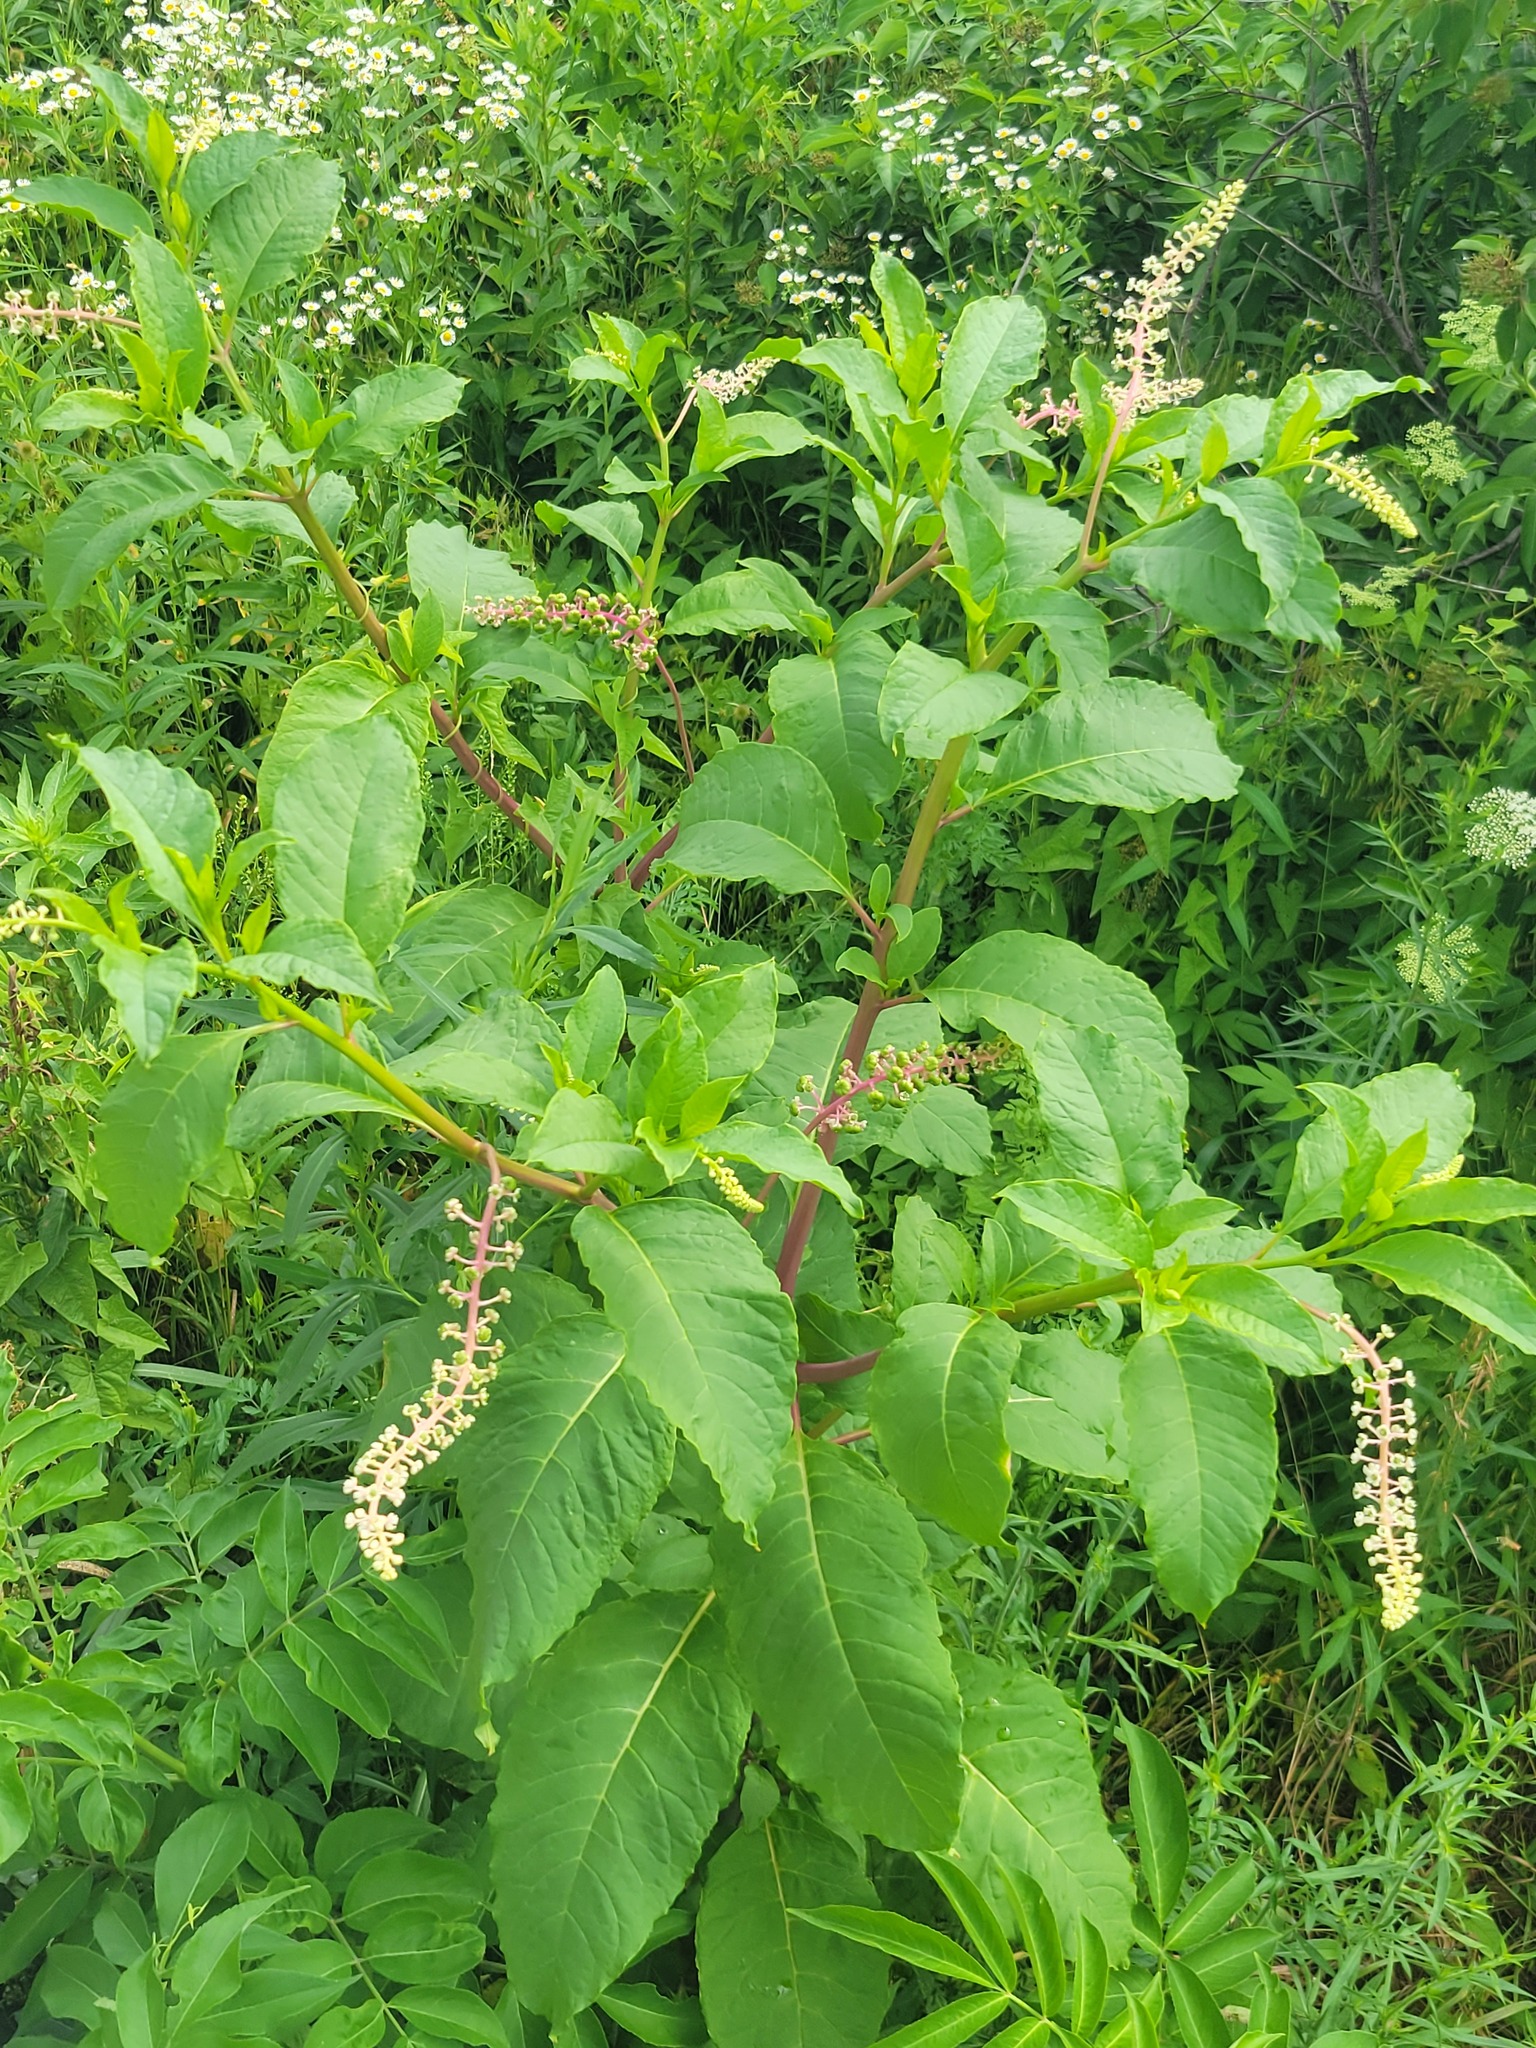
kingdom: Plantae
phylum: Tracheophyta
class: Magnoliopsida
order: Caryophyllales
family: Phytolaccaceae
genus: Phytolacca
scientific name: Phytolacca americana
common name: American pokeweed
